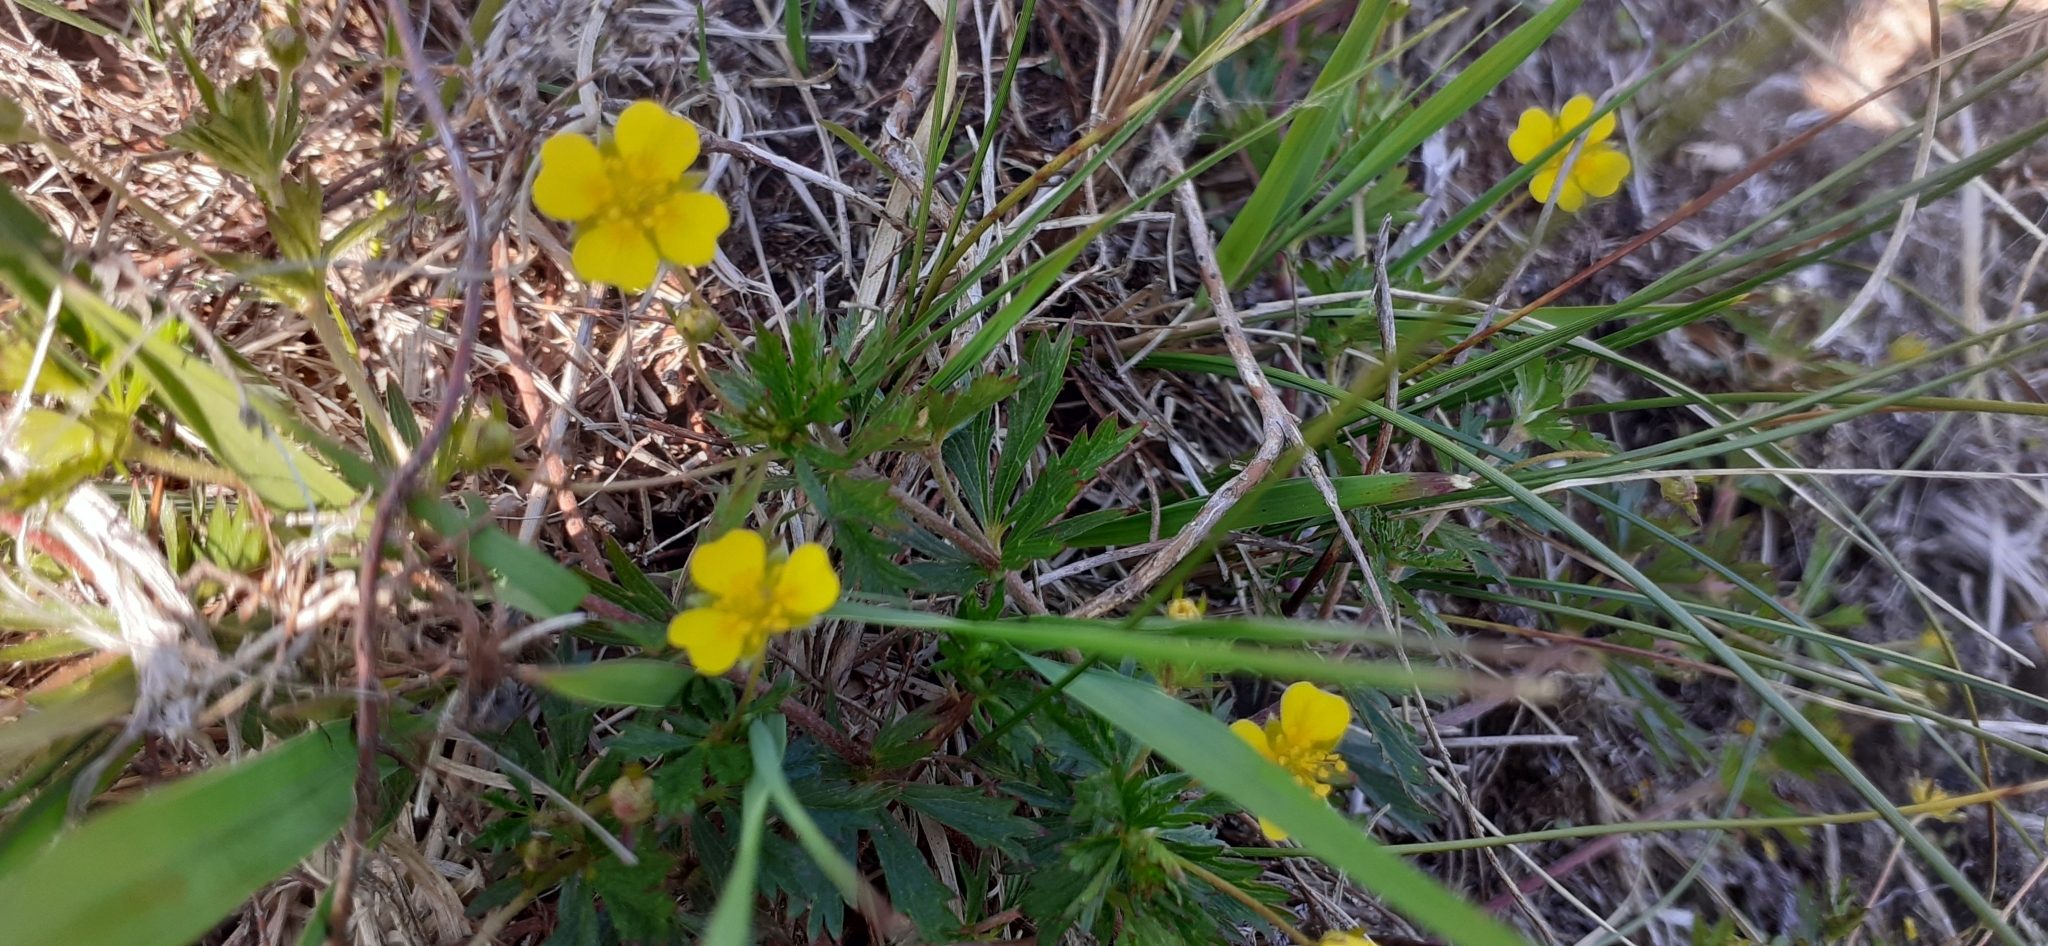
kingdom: Plantae
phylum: Tracheophyta
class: Magnoliopsida
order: Rosales
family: Rosaceae
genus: Potentilla
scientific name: Potentilla erecta
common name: Tormentil
